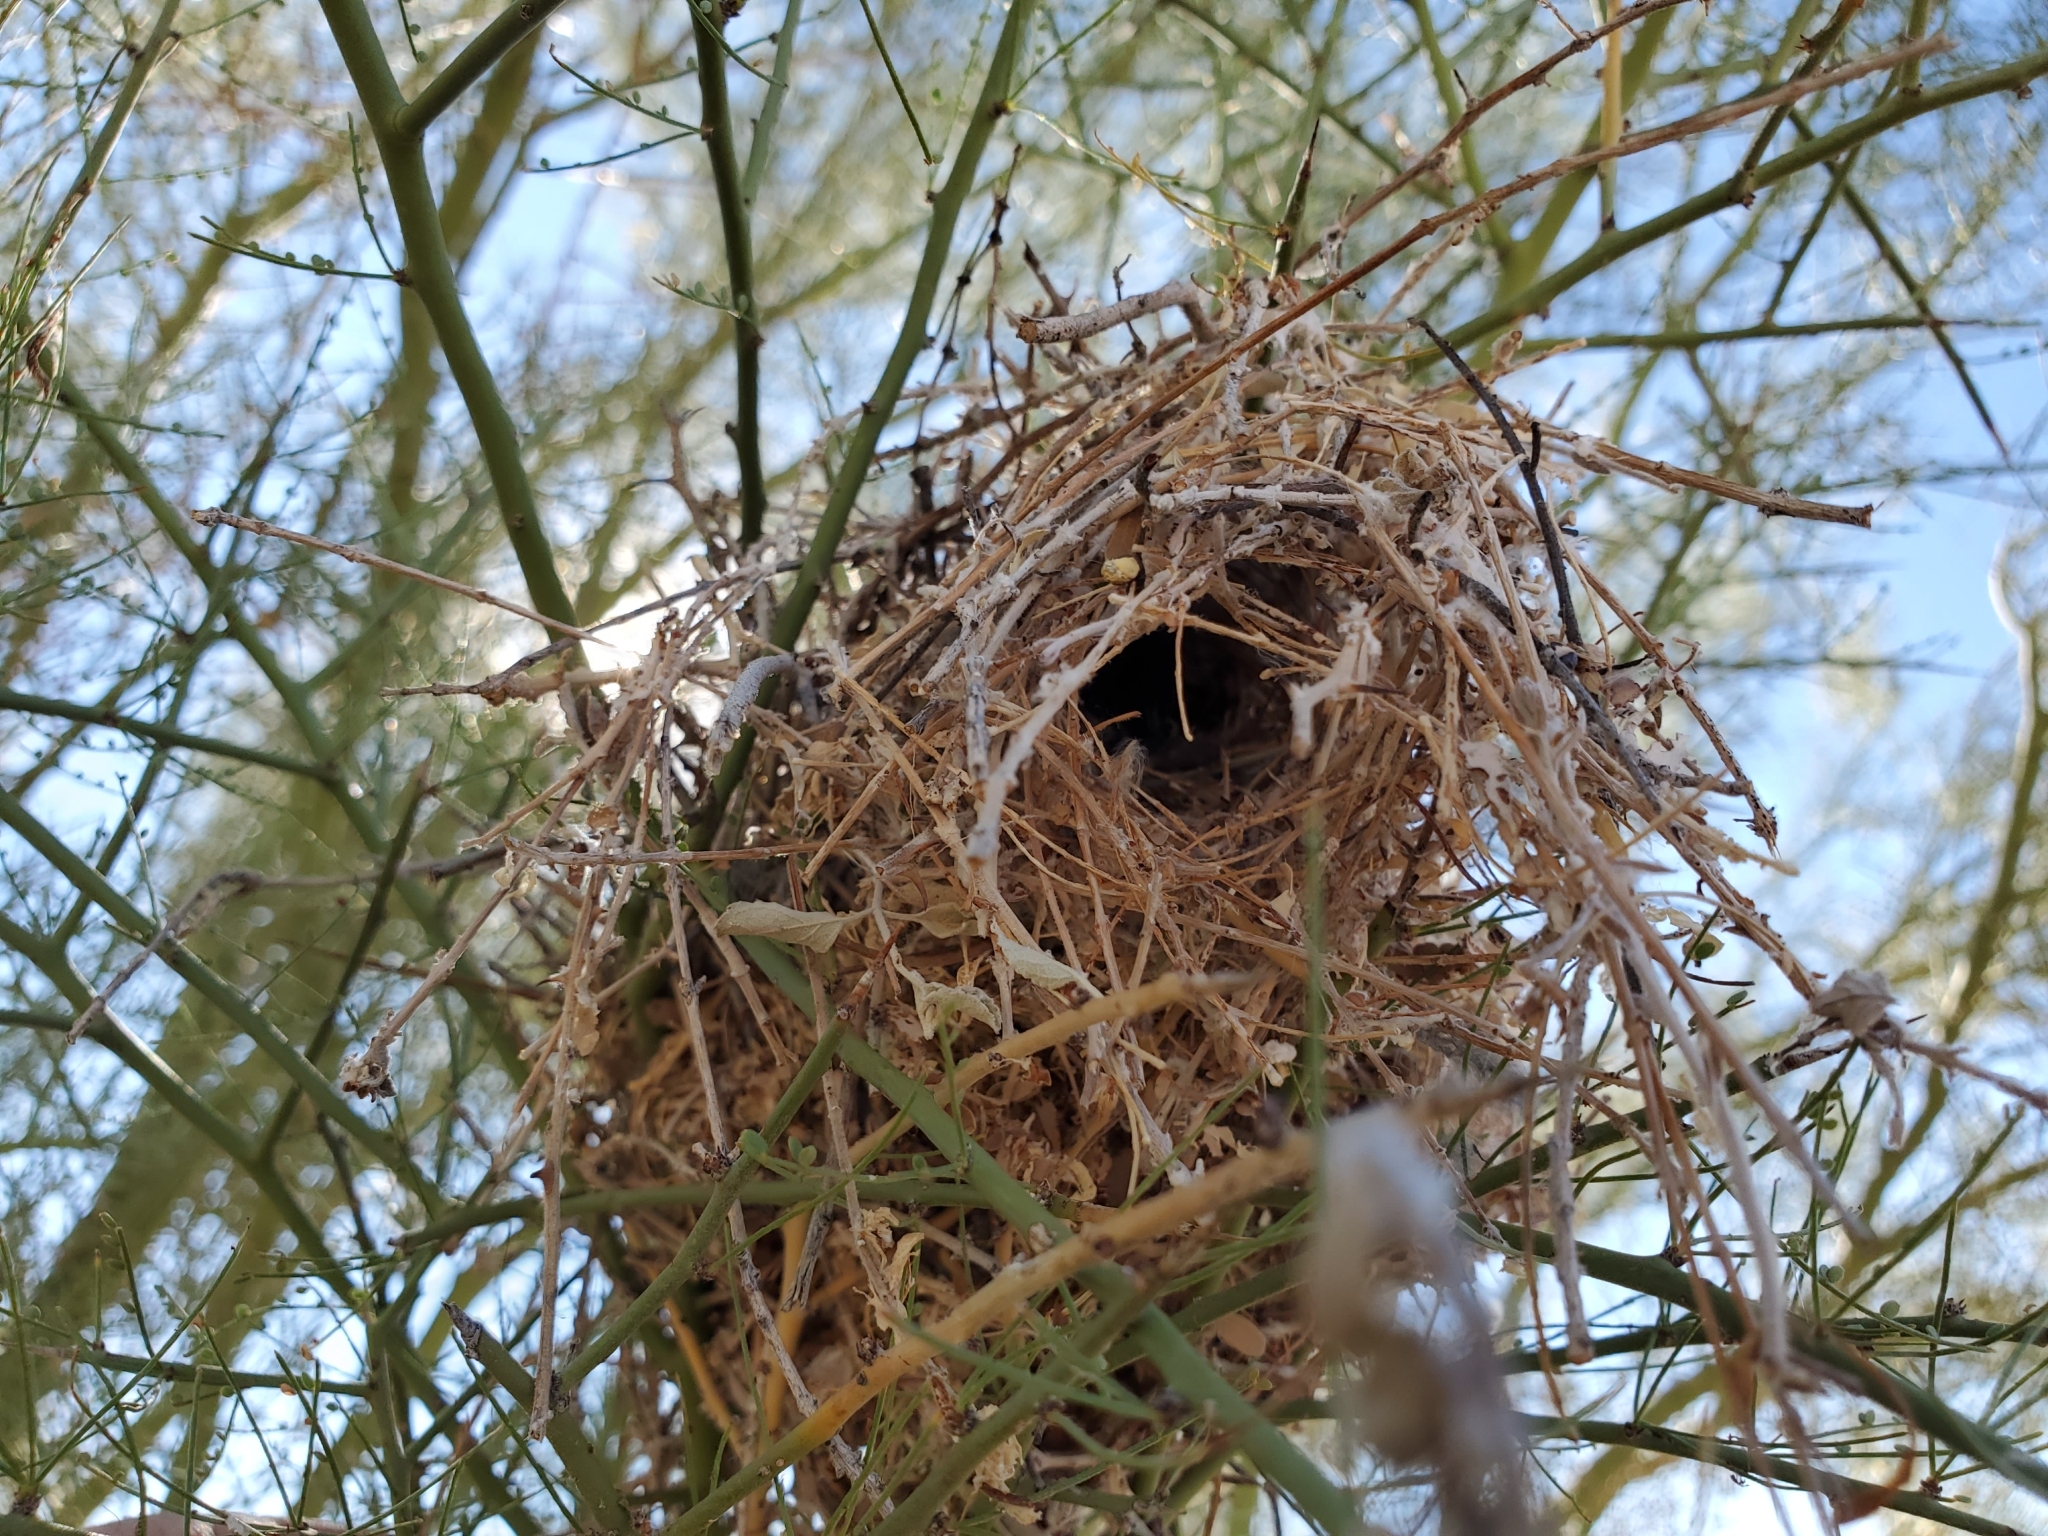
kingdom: Animalia
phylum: Chordata
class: Aves
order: Passeriformes
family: Remizidae
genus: Auriparus
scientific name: Auriparus flaviceps
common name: Verdin
